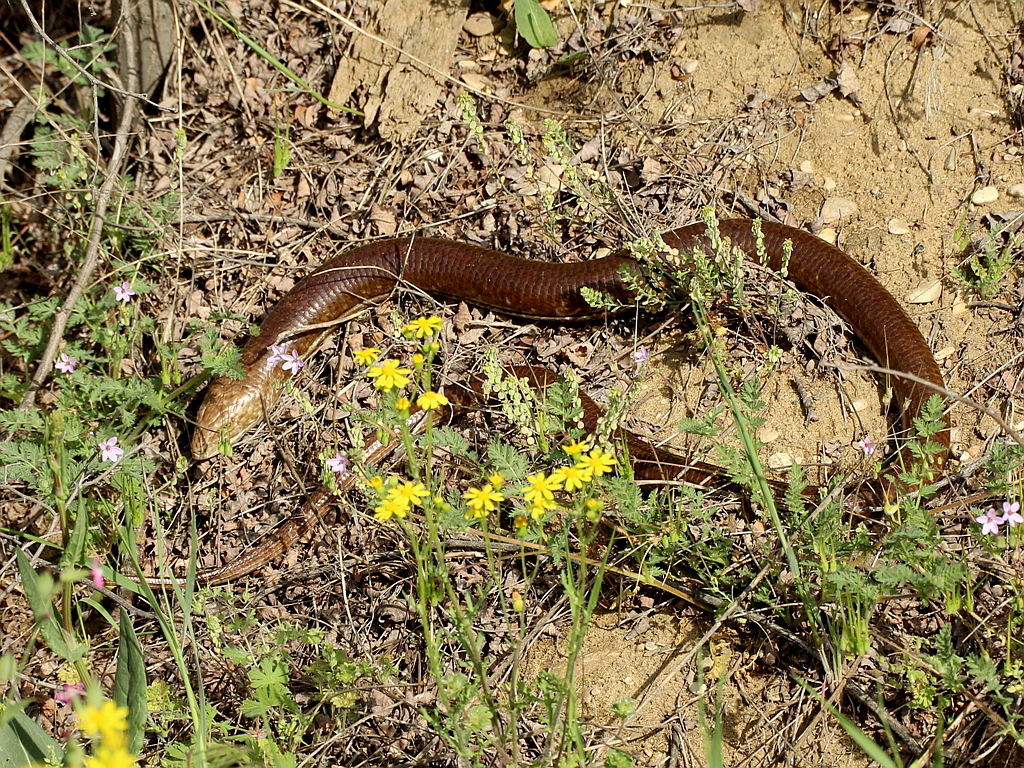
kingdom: Animalia
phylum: Chordata
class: Squamata
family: Anguidae
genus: Pseudopus
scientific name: Pseudopus apodus
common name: European glass lizard
